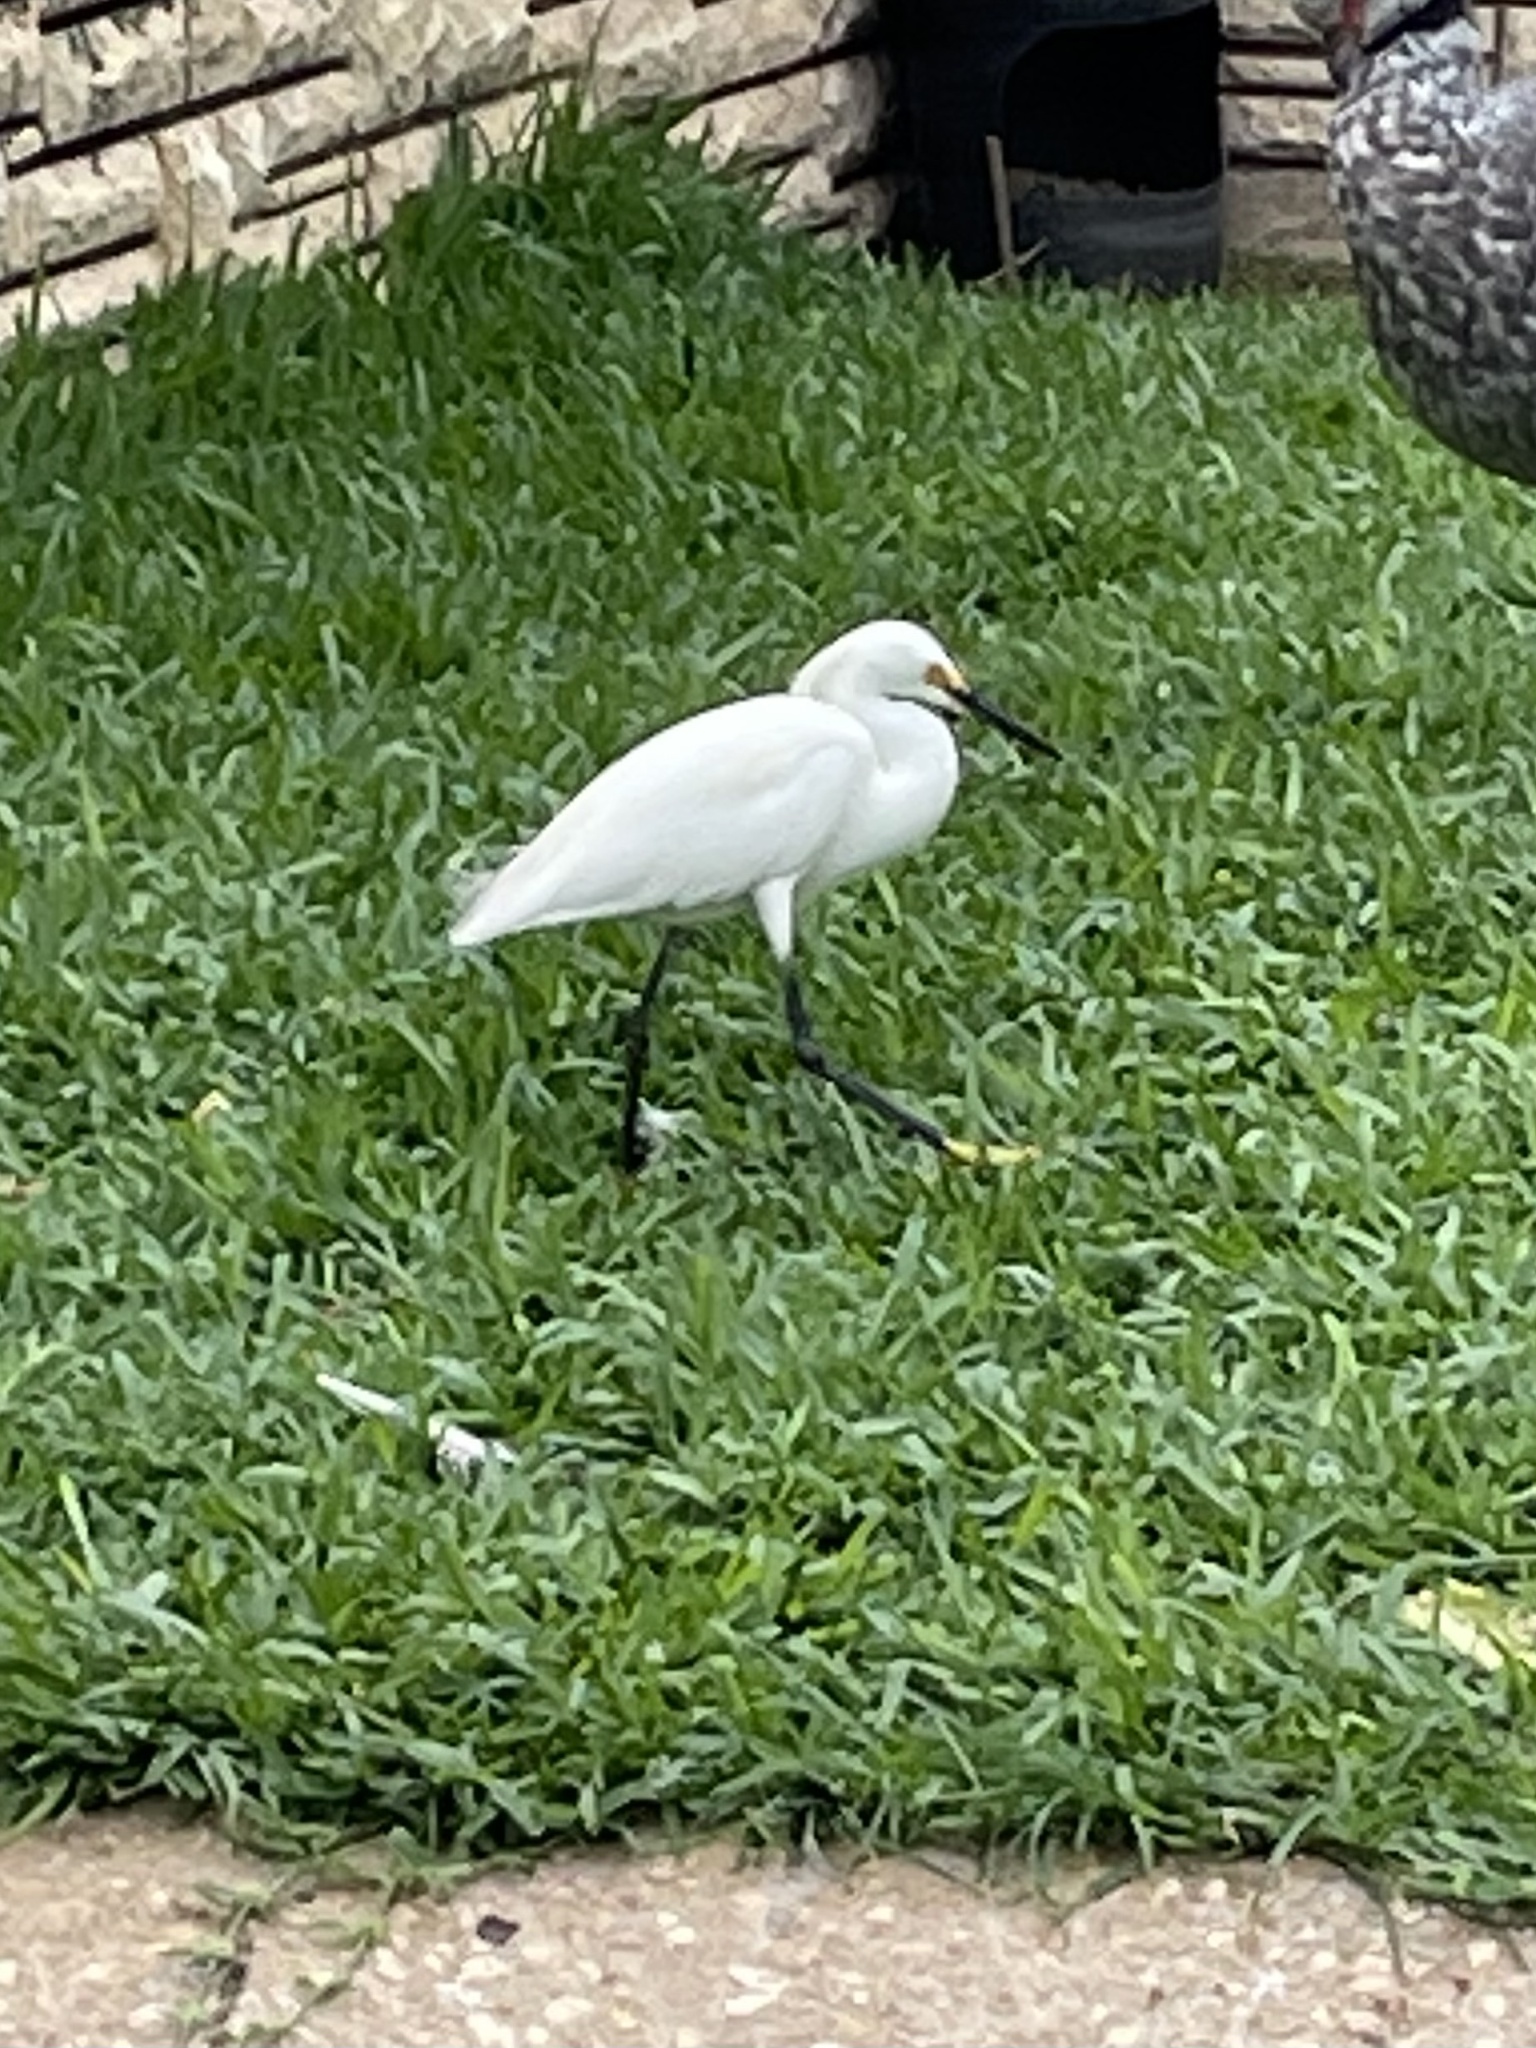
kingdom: Animalia
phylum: Chordata
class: Aves
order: Pelecaniformes
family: Ardeidae
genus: Egretta
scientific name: Egretta thula
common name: Snowy egret
